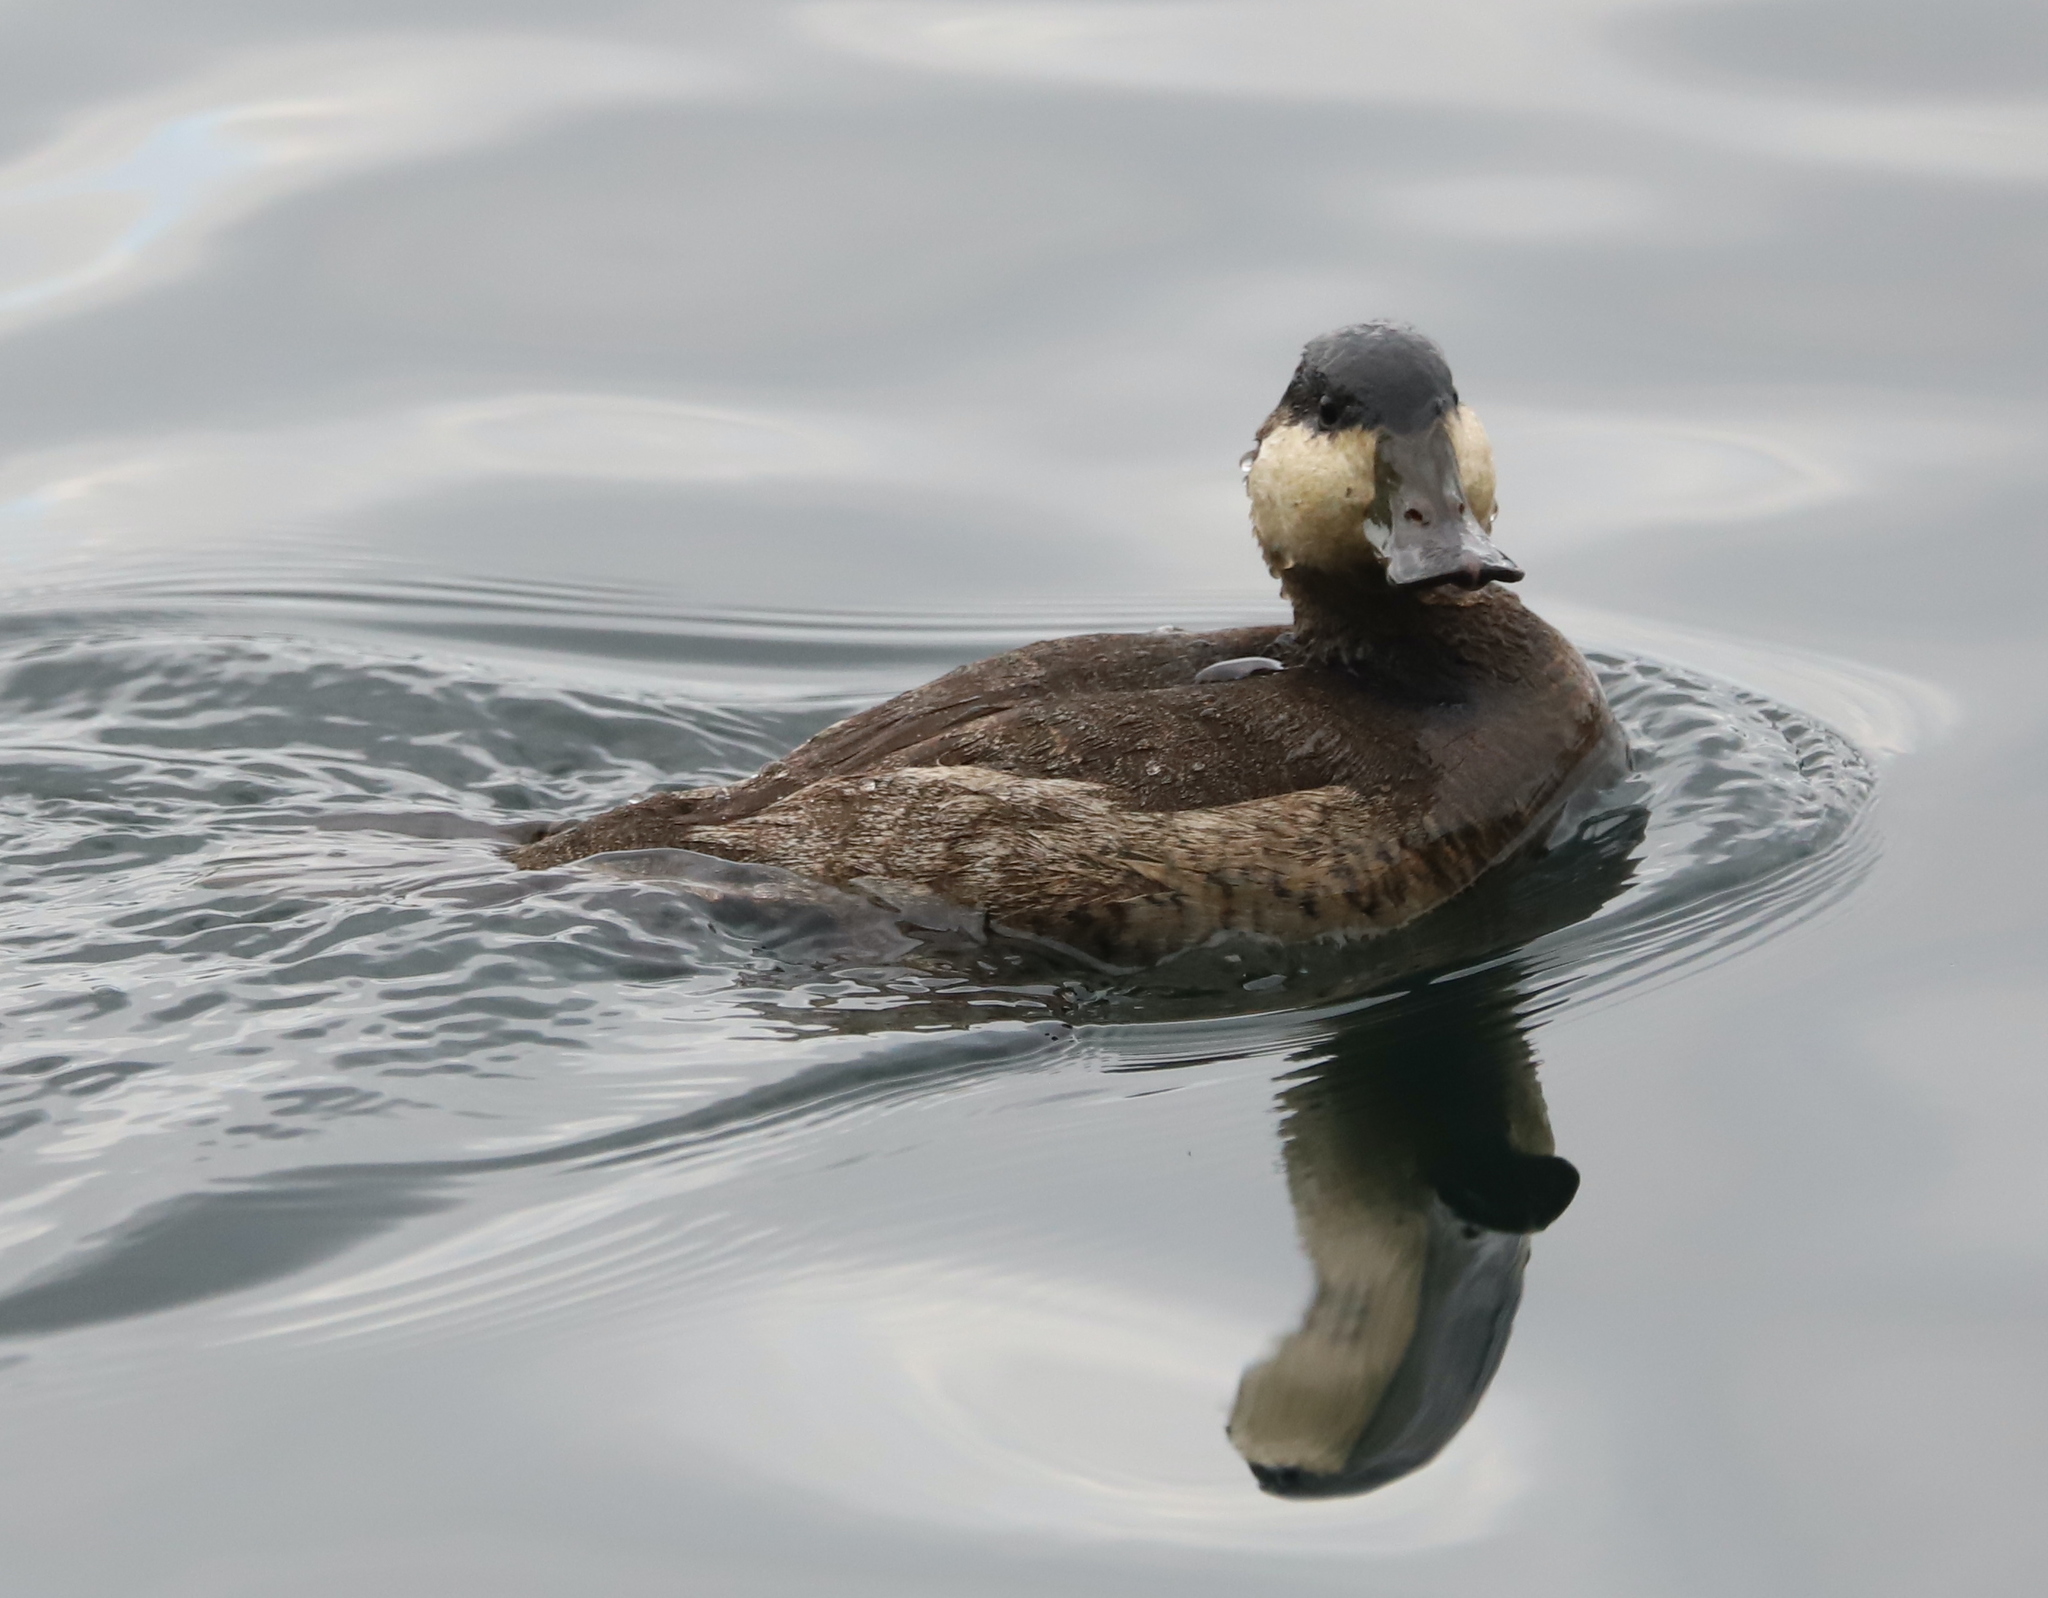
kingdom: Animalia
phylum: Chordata
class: Aves
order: Anseriformes
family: Anatidae
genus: Oxyura
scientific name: Oxyura jamaicensis
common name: Ruddy duck
